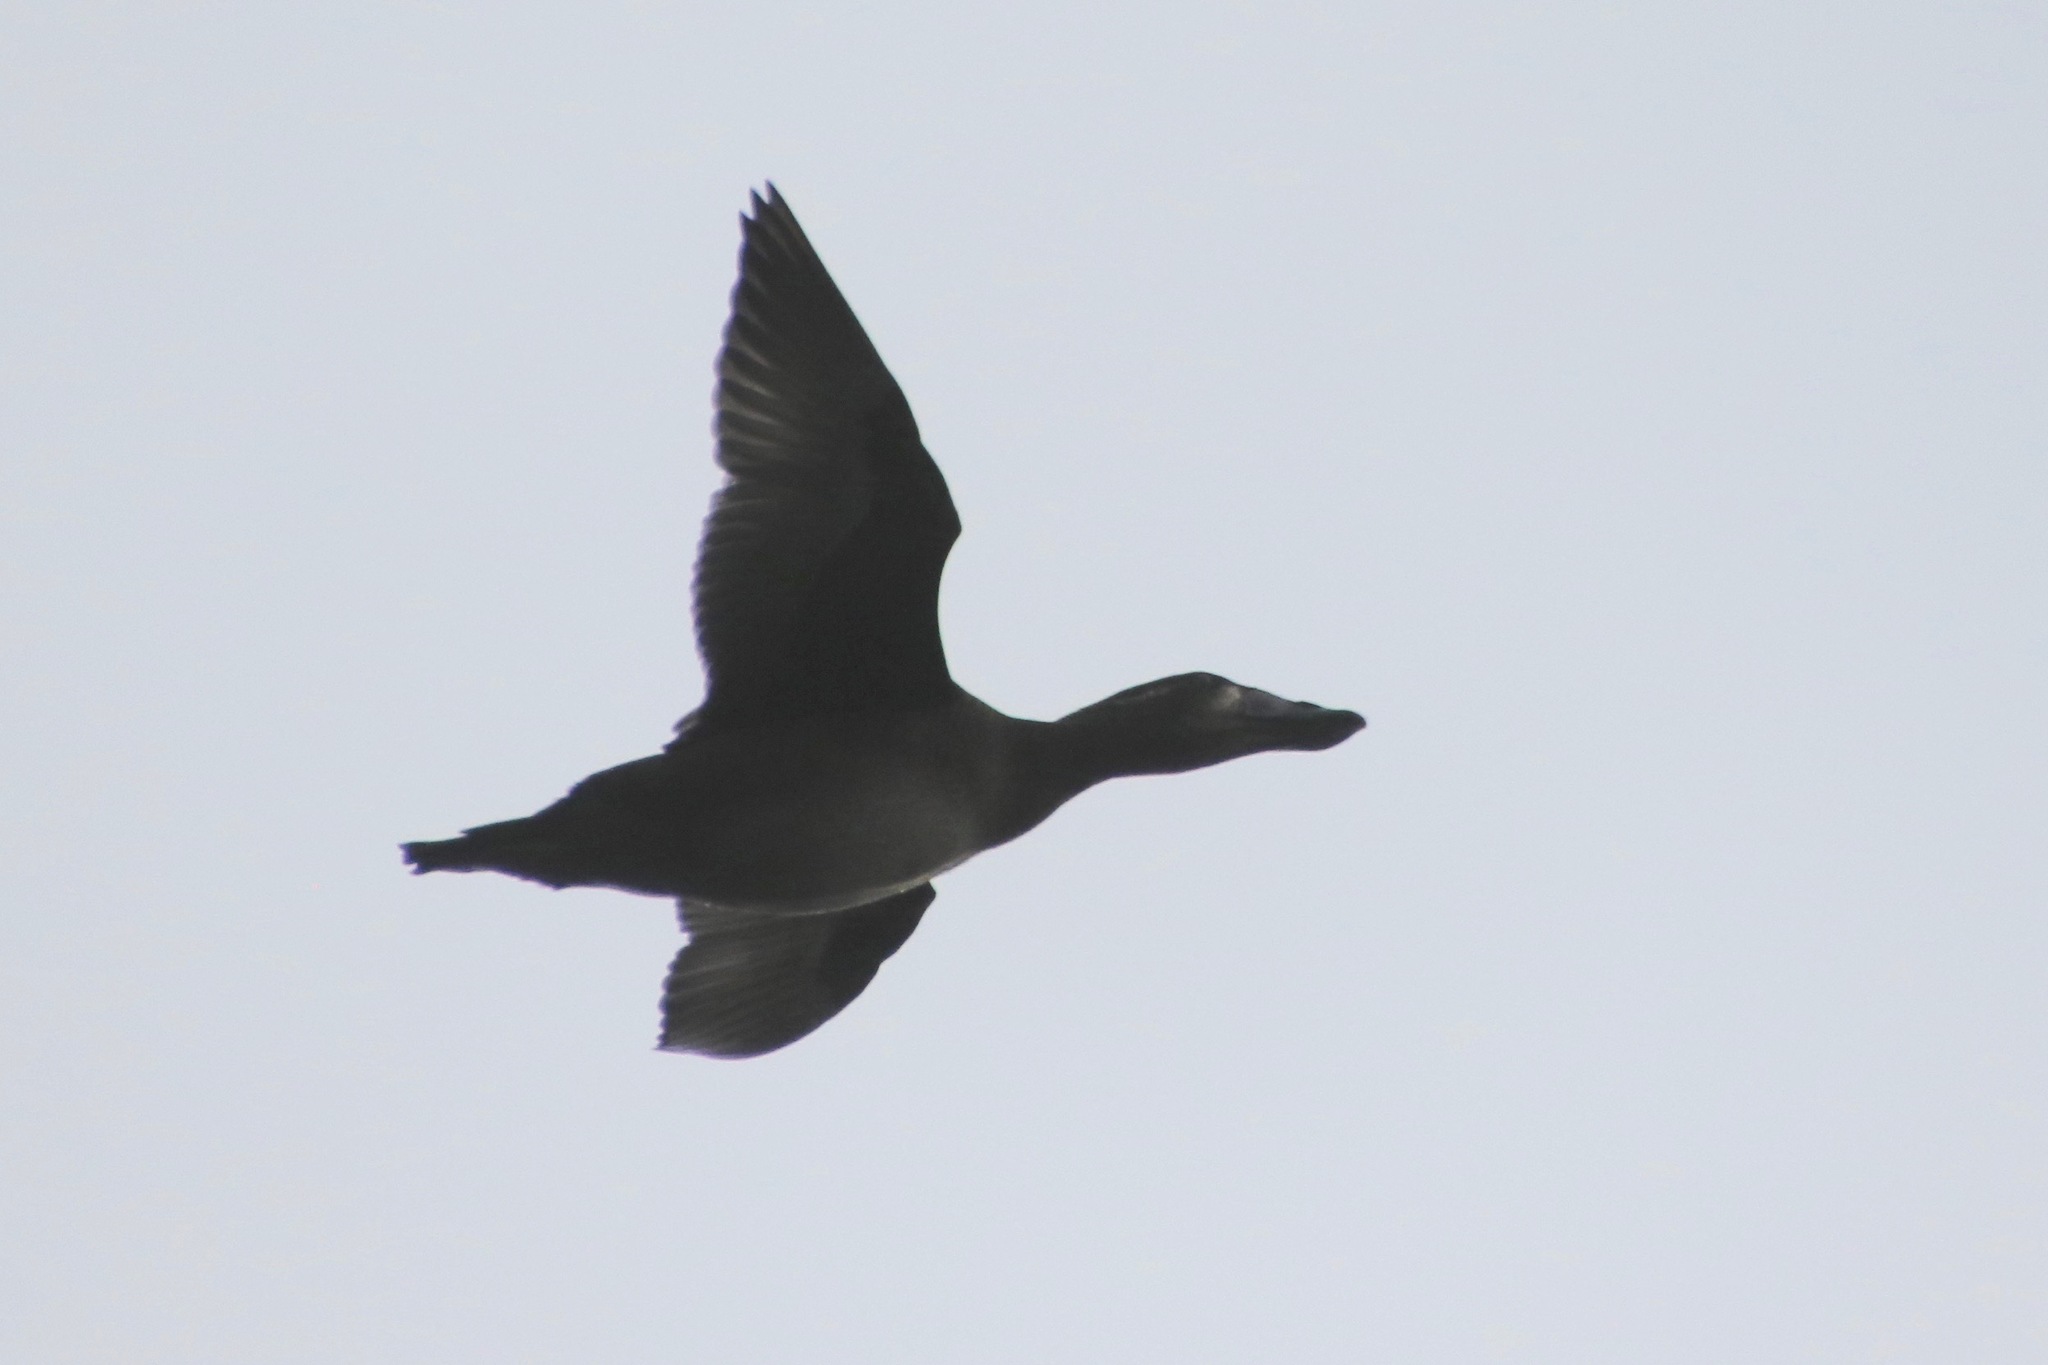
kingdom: Animalia
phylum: Chordata
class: Aves
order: Anseriformes
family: Anatidae
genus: Melanitta
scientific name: Melanitta perspicillata
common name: Surf scoter
